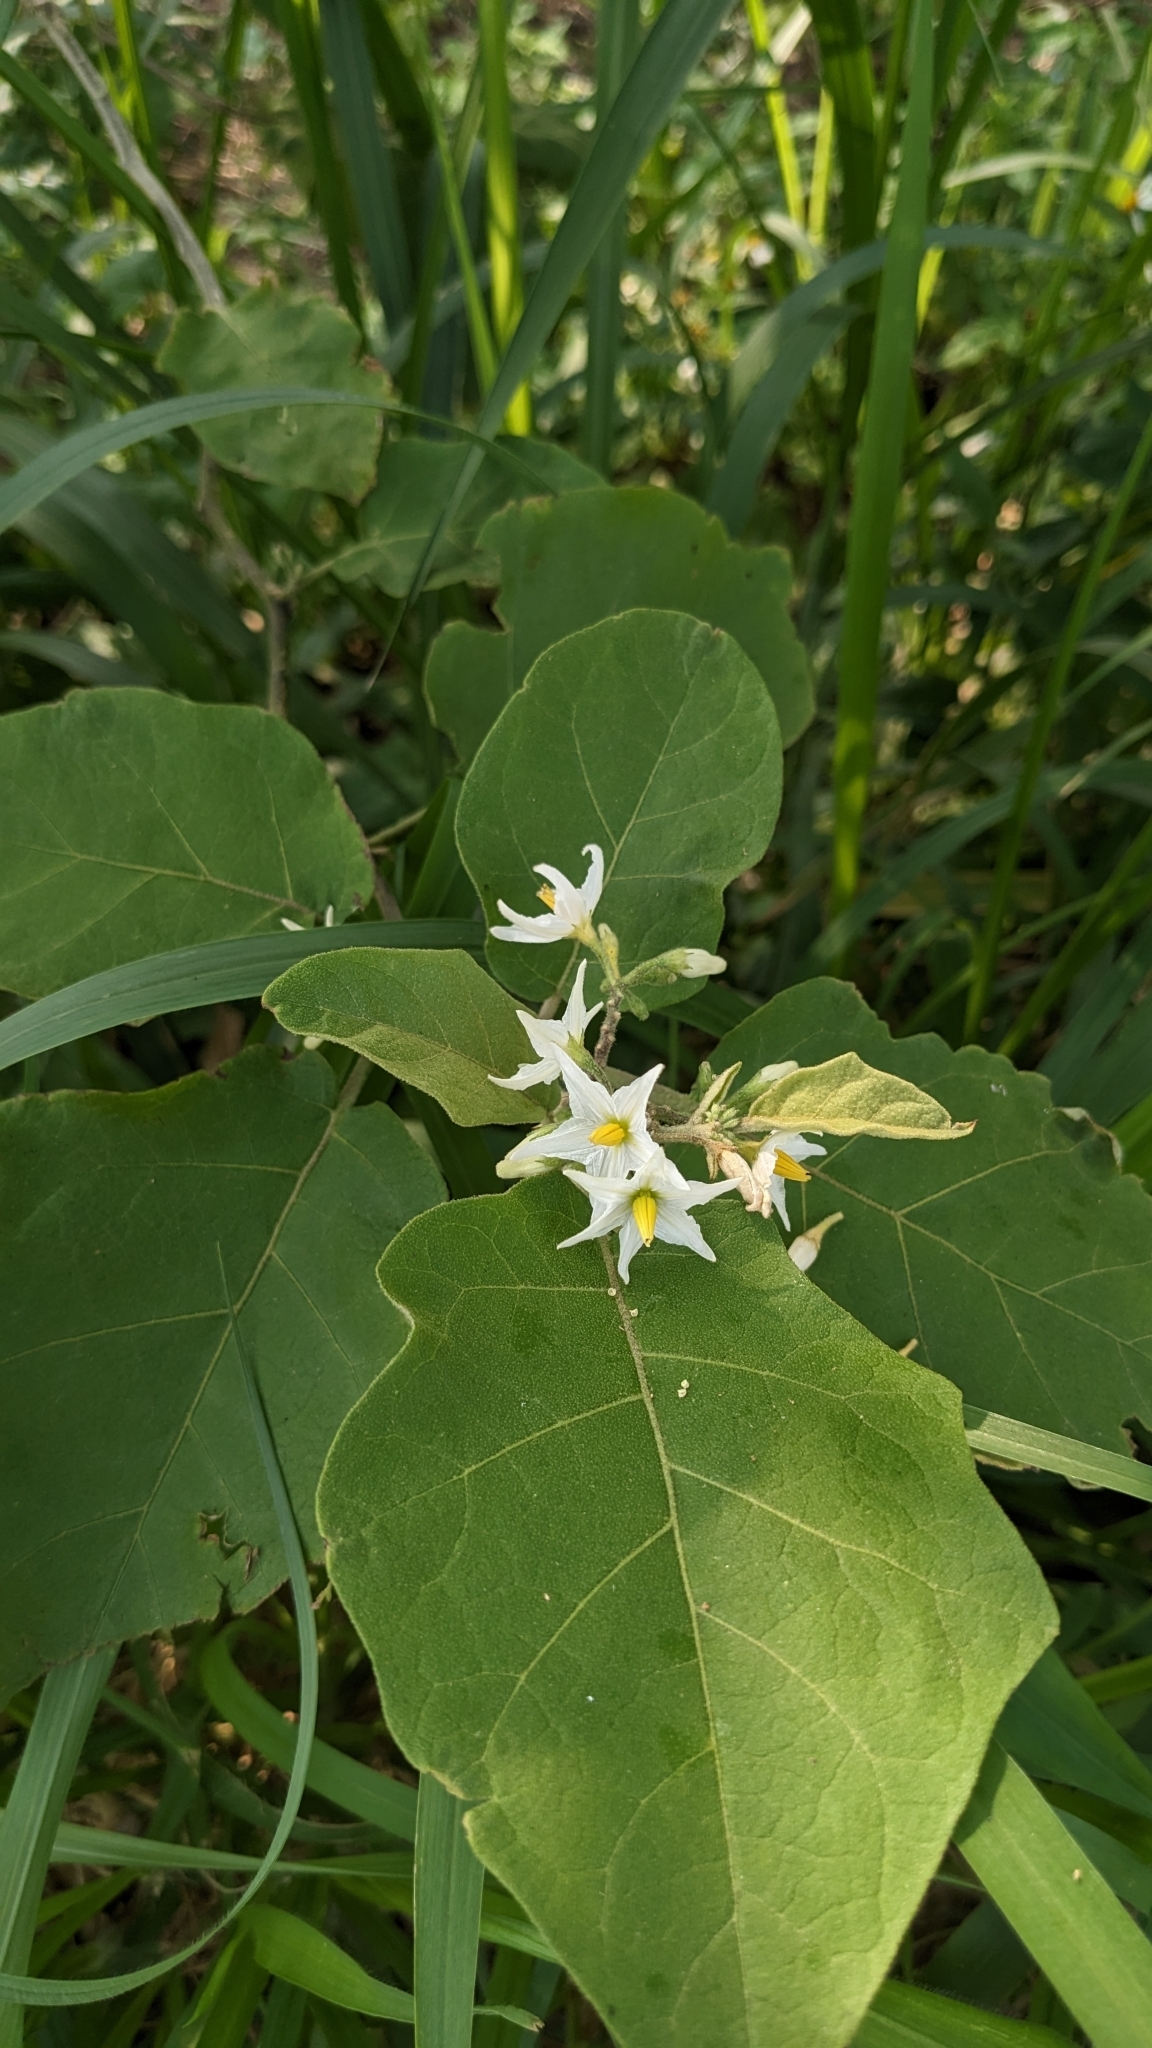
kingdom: Plantae
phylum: Tracheophyta
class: Magnoliopsida
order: Solanales
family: Solanaceae
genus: Solanum
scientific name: Solanum torvum
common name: Turkey berry
